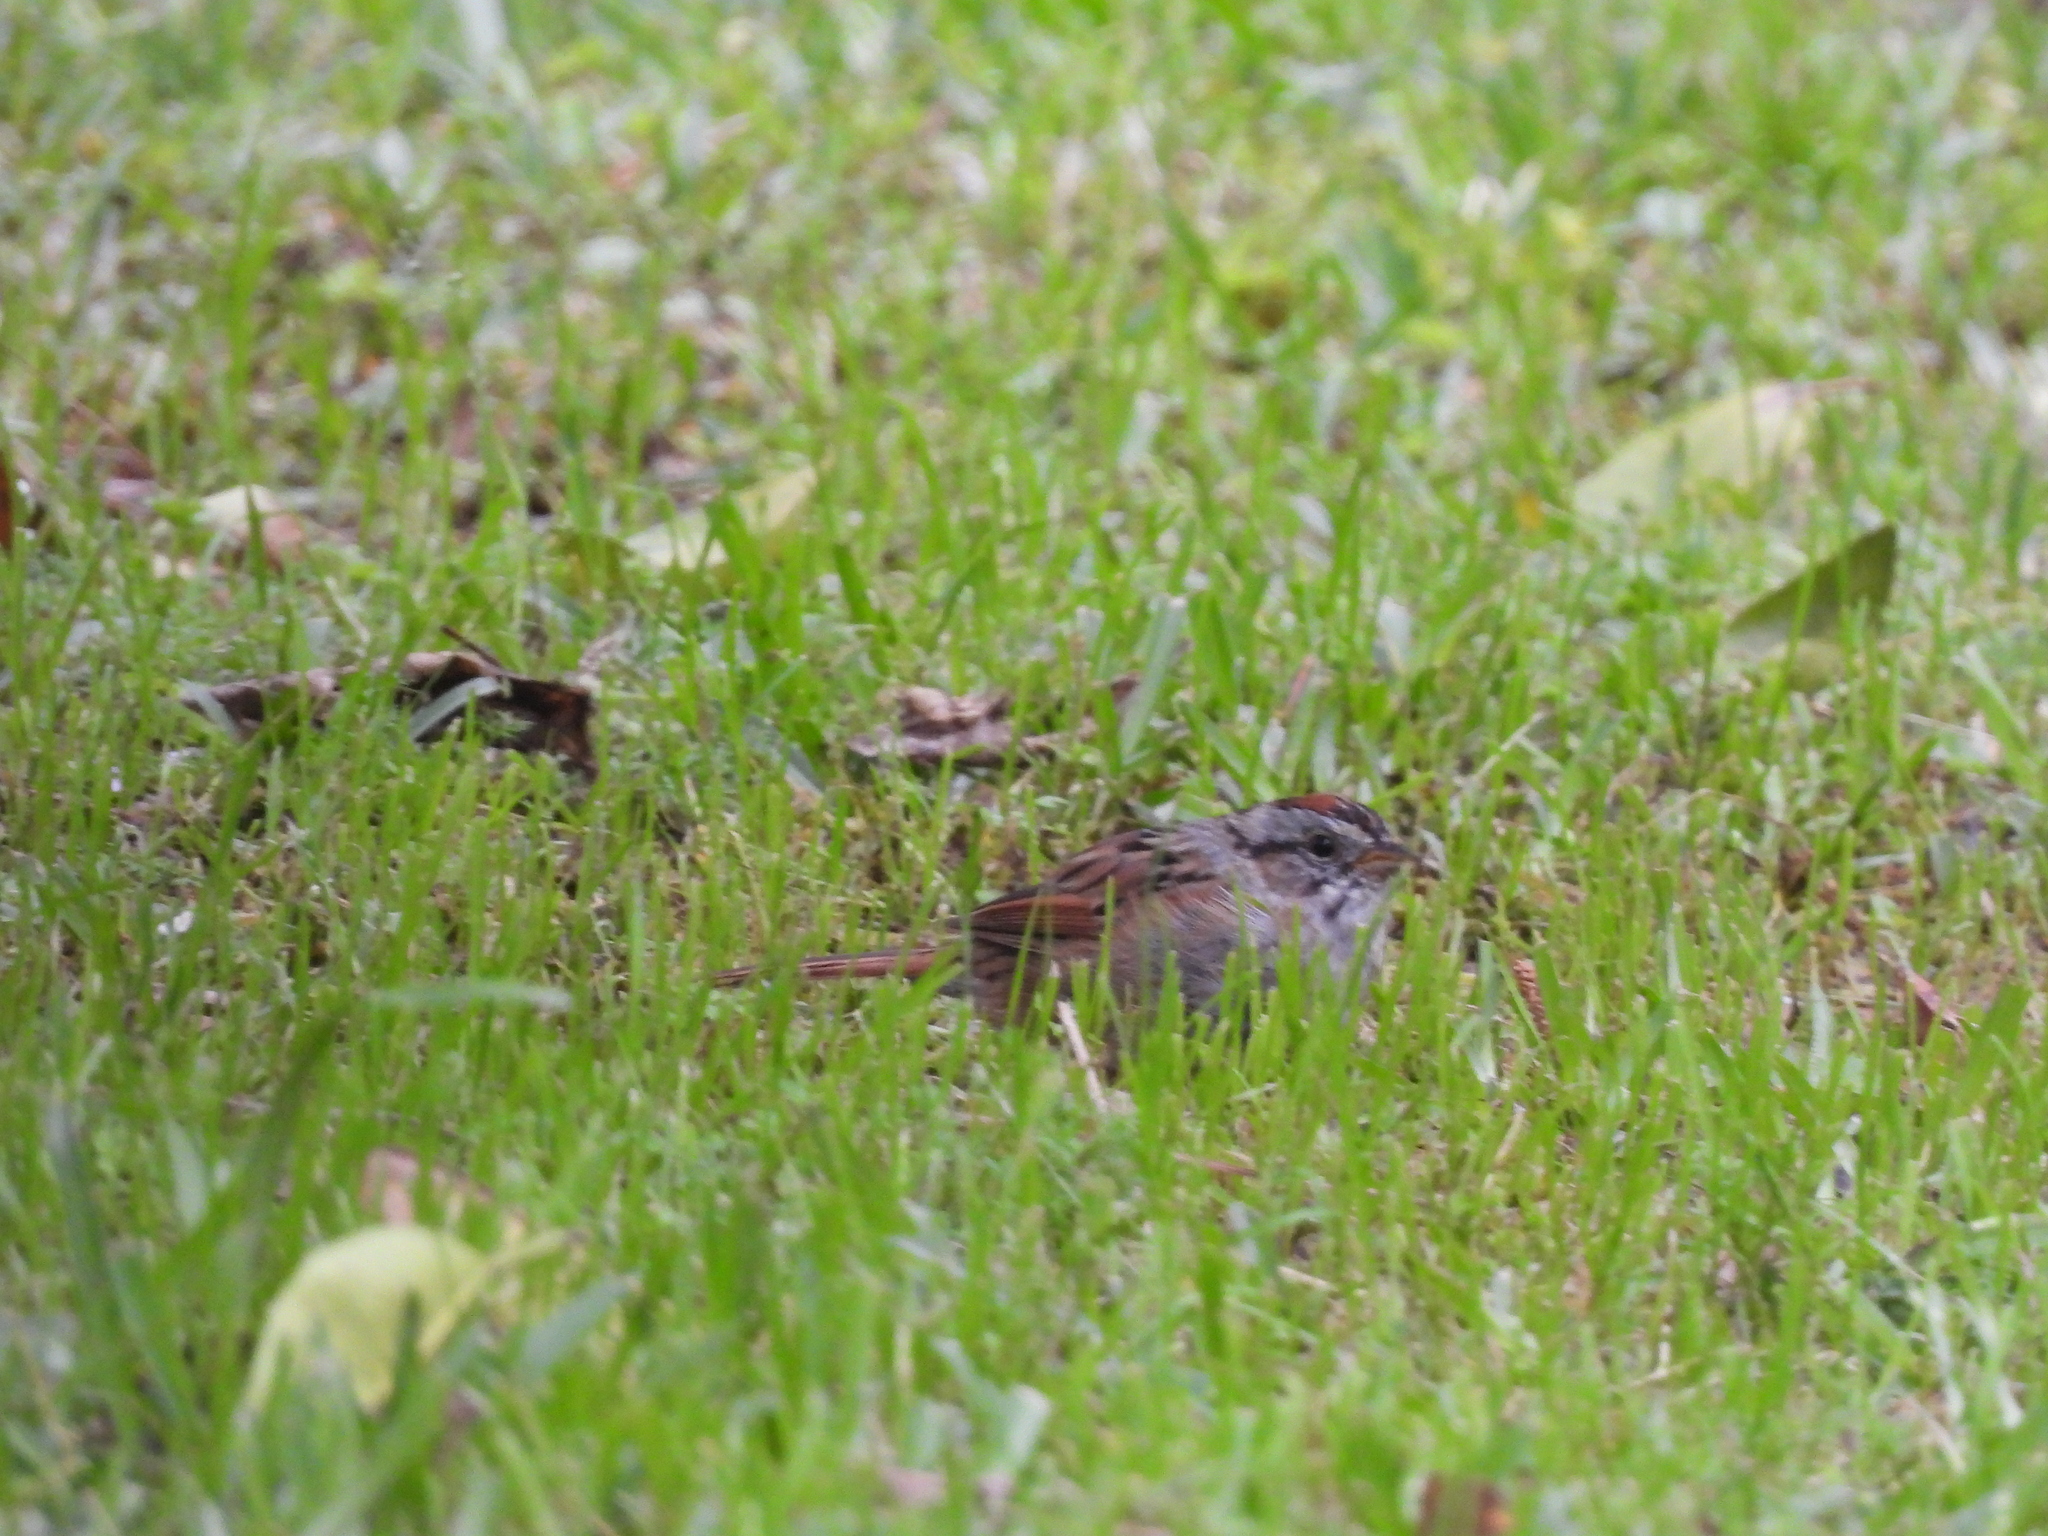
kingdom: Animalia
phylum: Chordata
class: Aves
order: Passeriformes
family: Passerellidae
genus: Melospiza
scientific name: Melospiza georgiana
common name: Swamp sparrow
